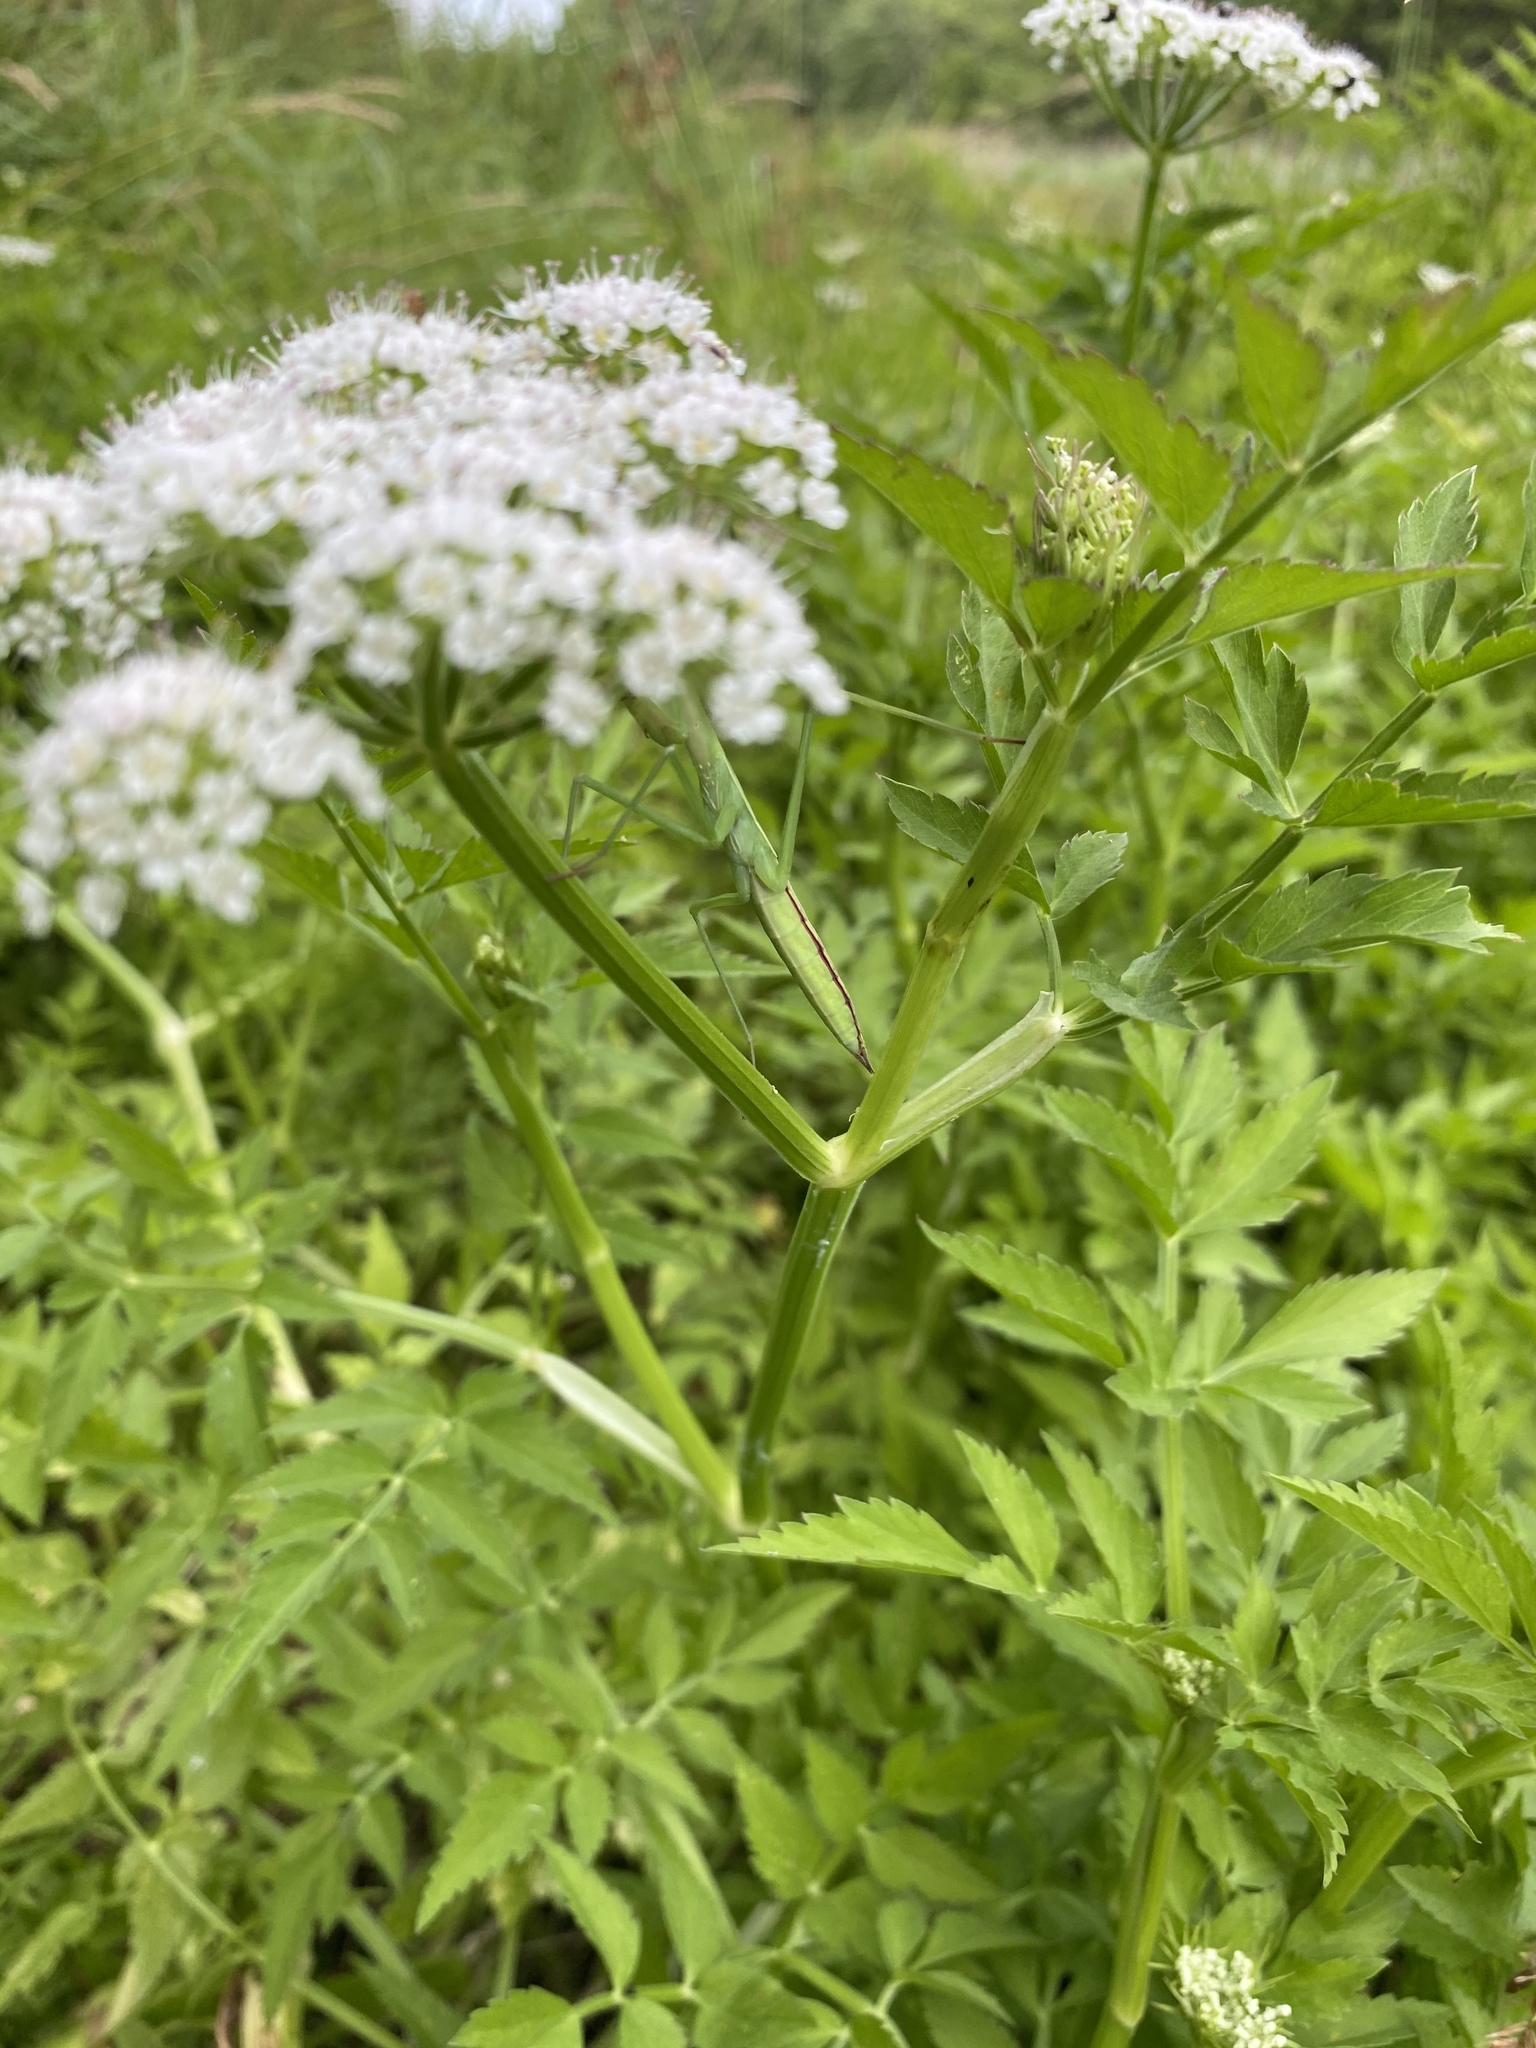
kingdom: Animalia
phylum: Arthropoda
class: Insecta
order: Coleoptera
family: Mordellidae
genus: Mordellistena
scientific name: Mordellistena limbalis
